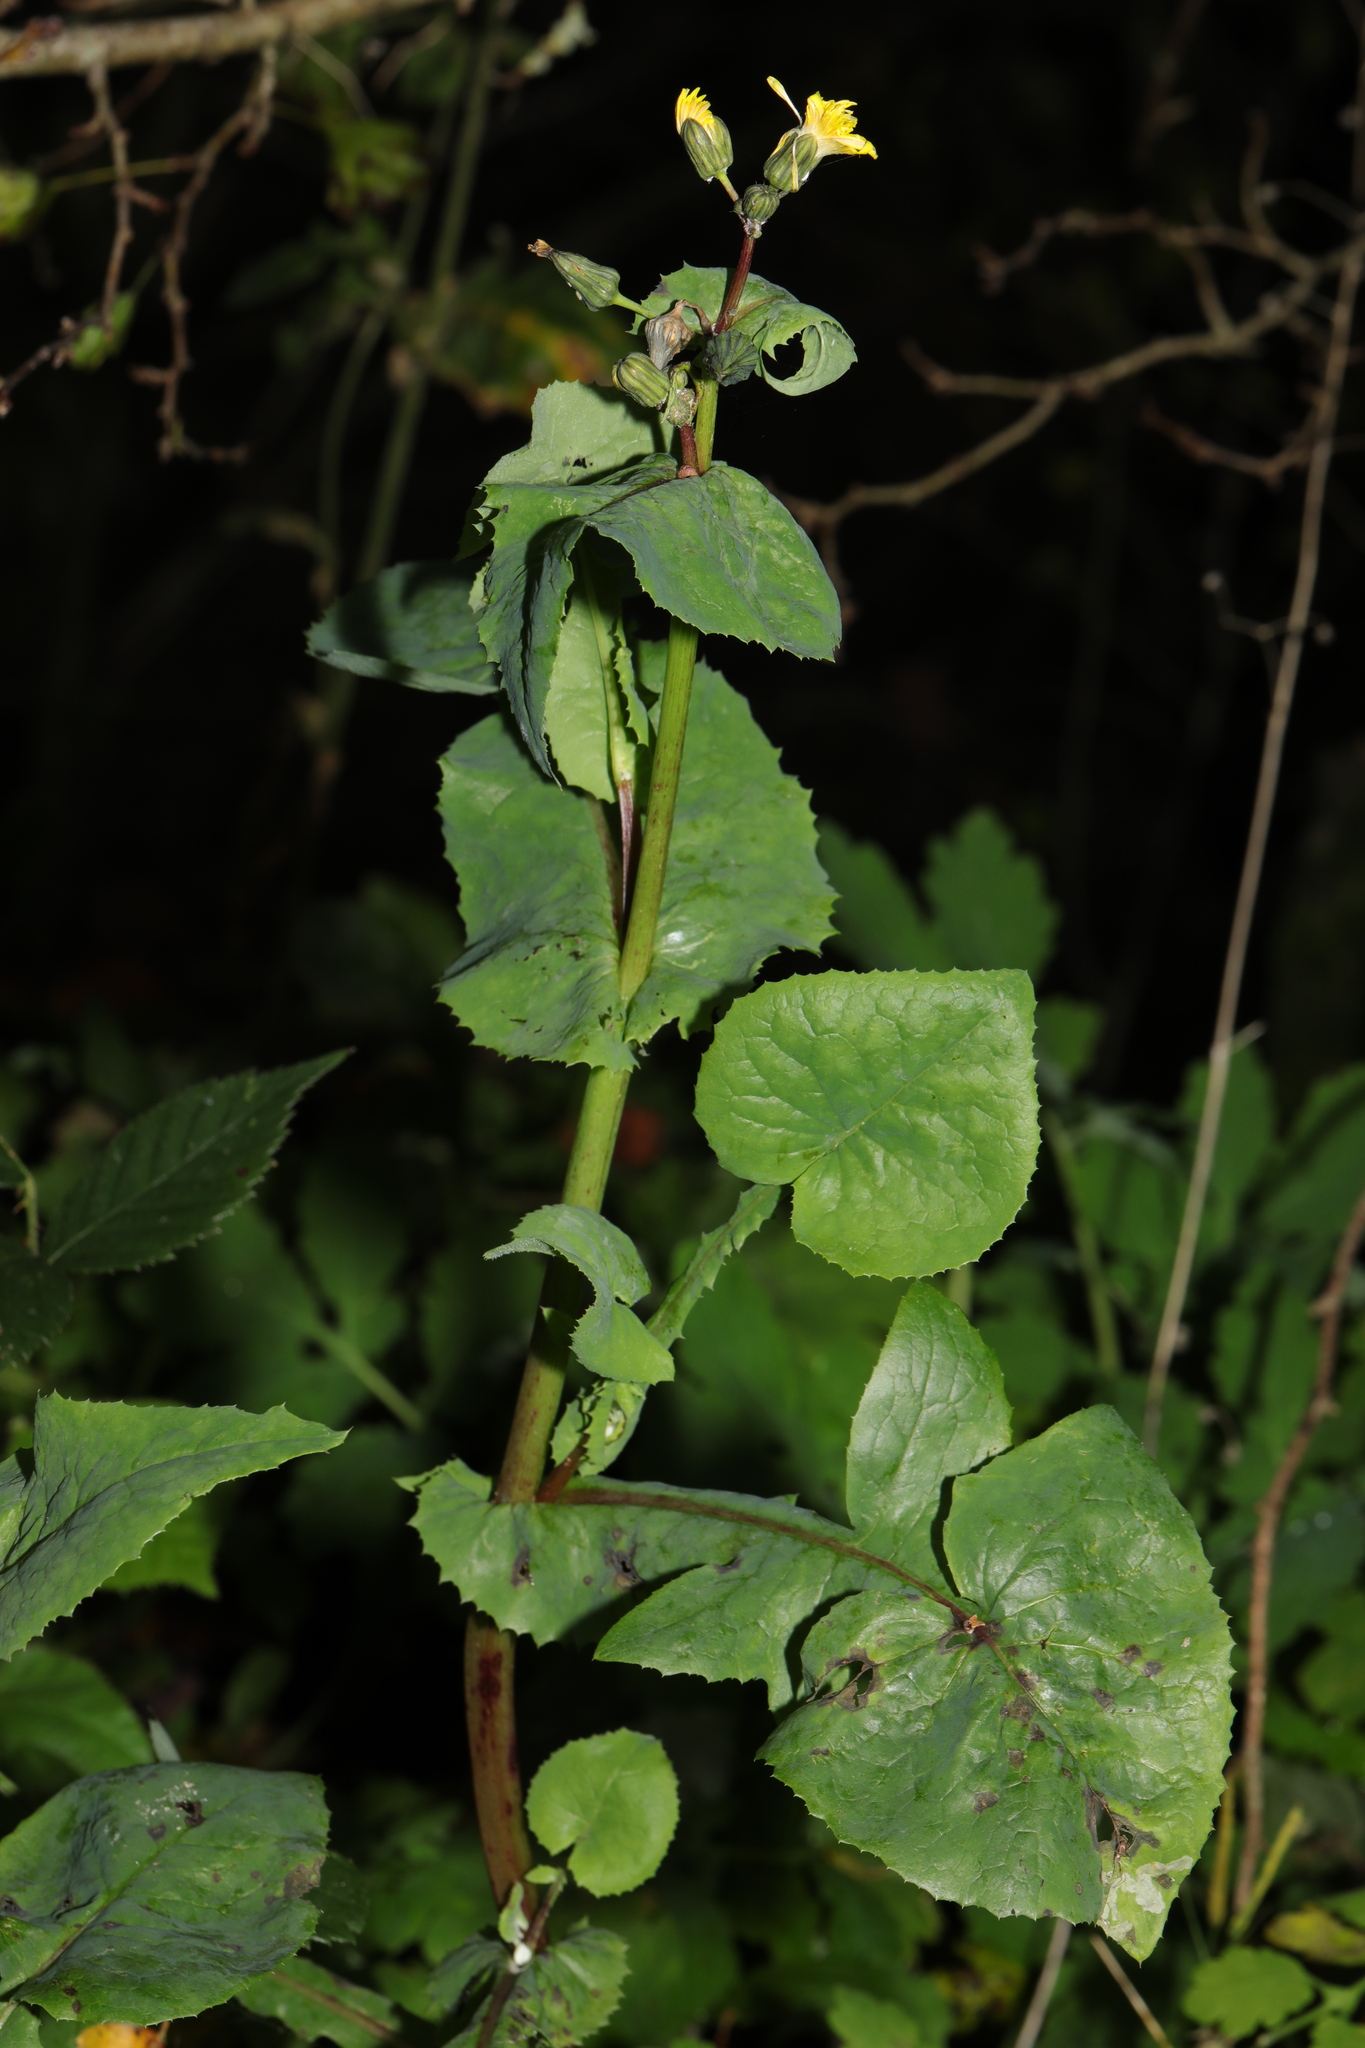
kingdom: Plantae
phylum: Tracheophyta
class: Magnoliopsida
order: Asterales
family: Asteraceae
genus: Sonchus
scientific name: Sonchus oleraceus
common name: Common sowthistle
